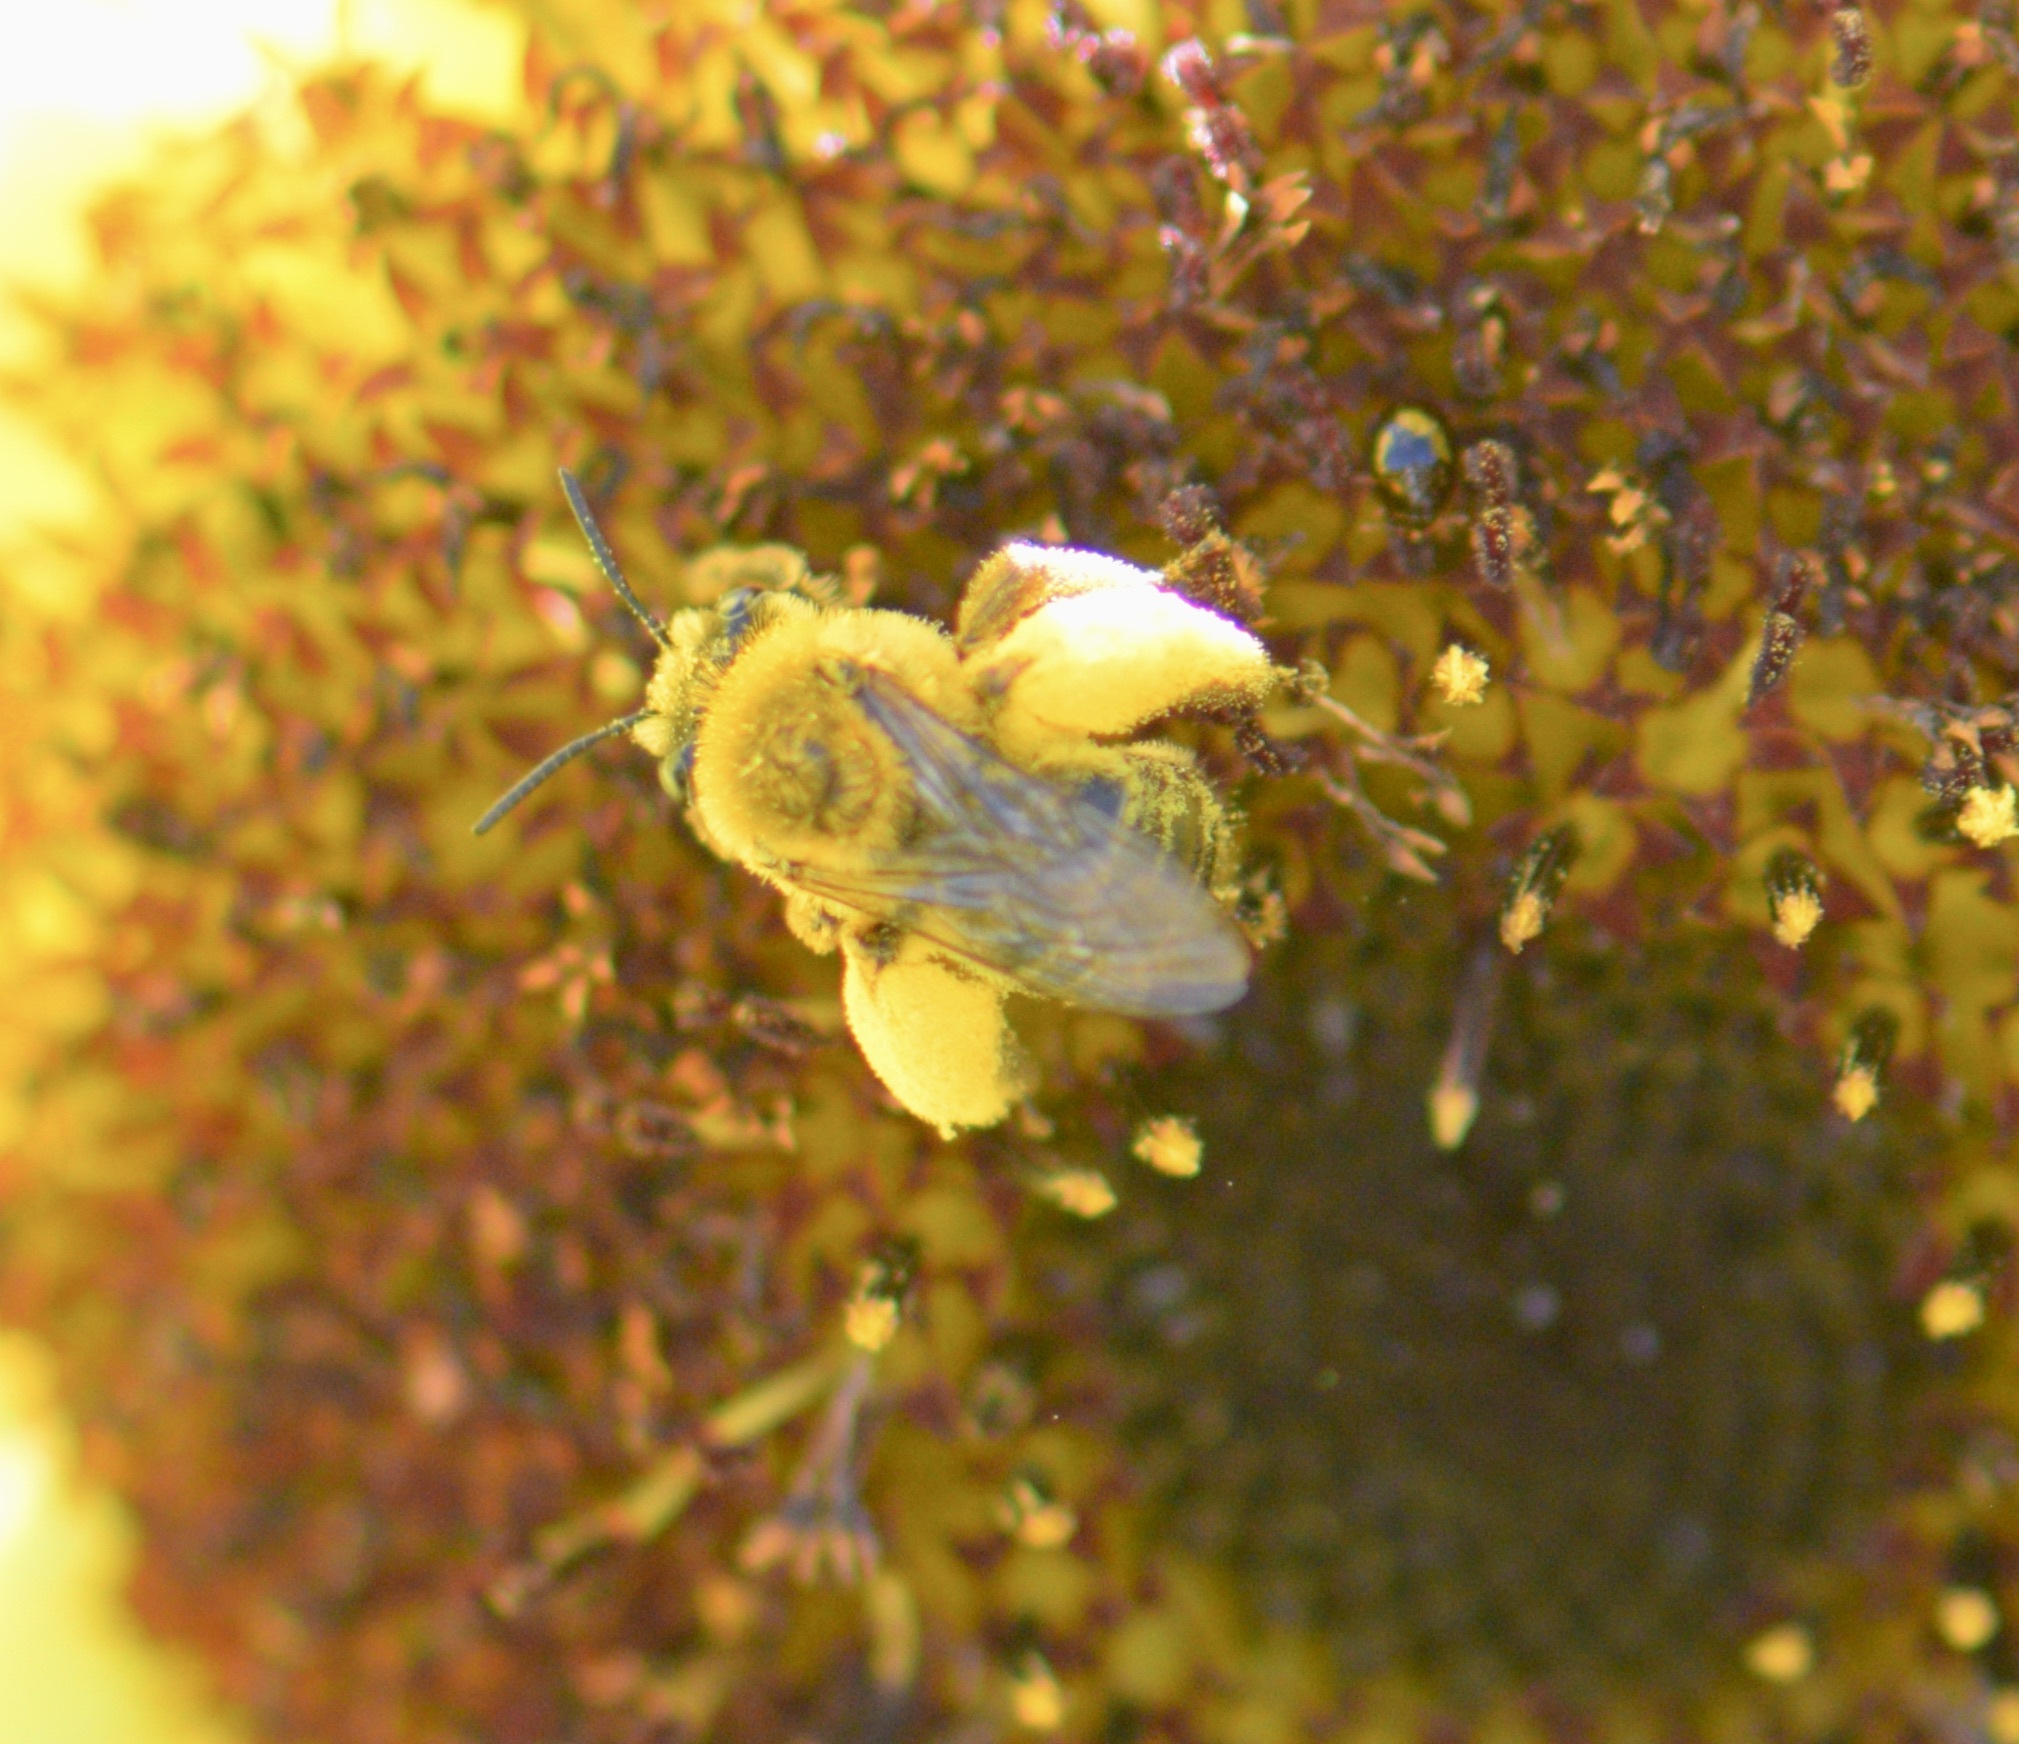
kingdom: Animalia
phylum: Arthropoda
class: Insecta
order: Hymenoptera
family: Apidae
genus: Melissodes
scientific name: Melissodes trinodis
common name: Dark-veined longhorn
